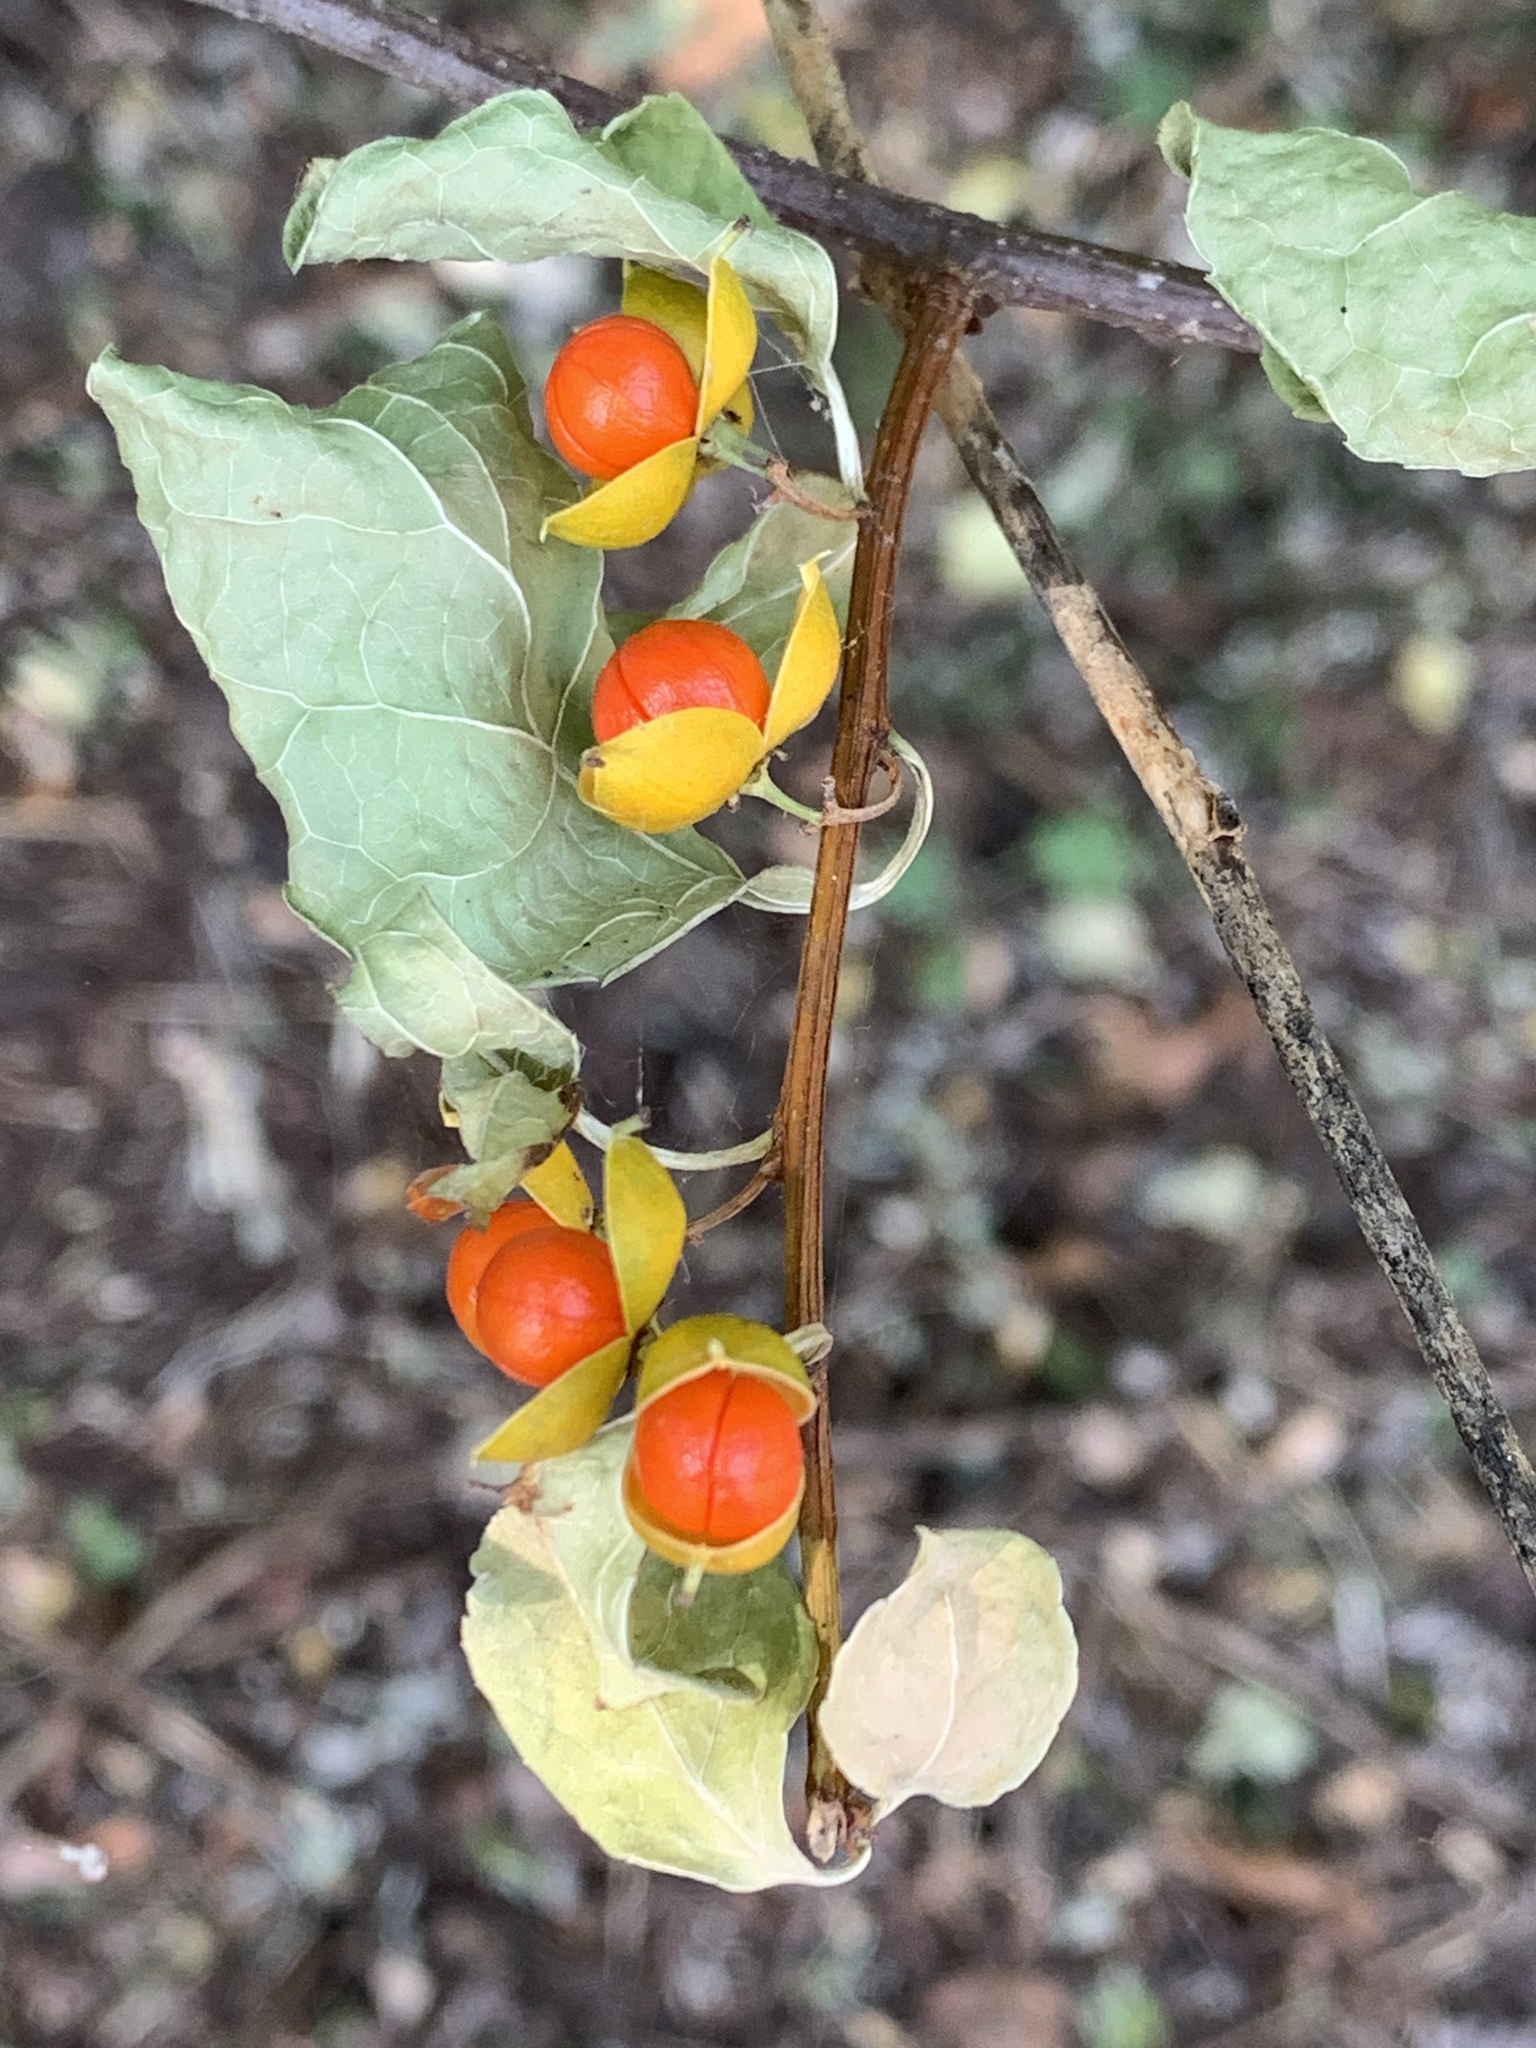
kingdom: Plantae
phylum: Tracheophyta
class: Magnoliopsida
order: Celastrales
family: Celastraceae
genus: Celastrus
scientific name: Celastrus orbiculatus
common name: Oriental bittersweet
